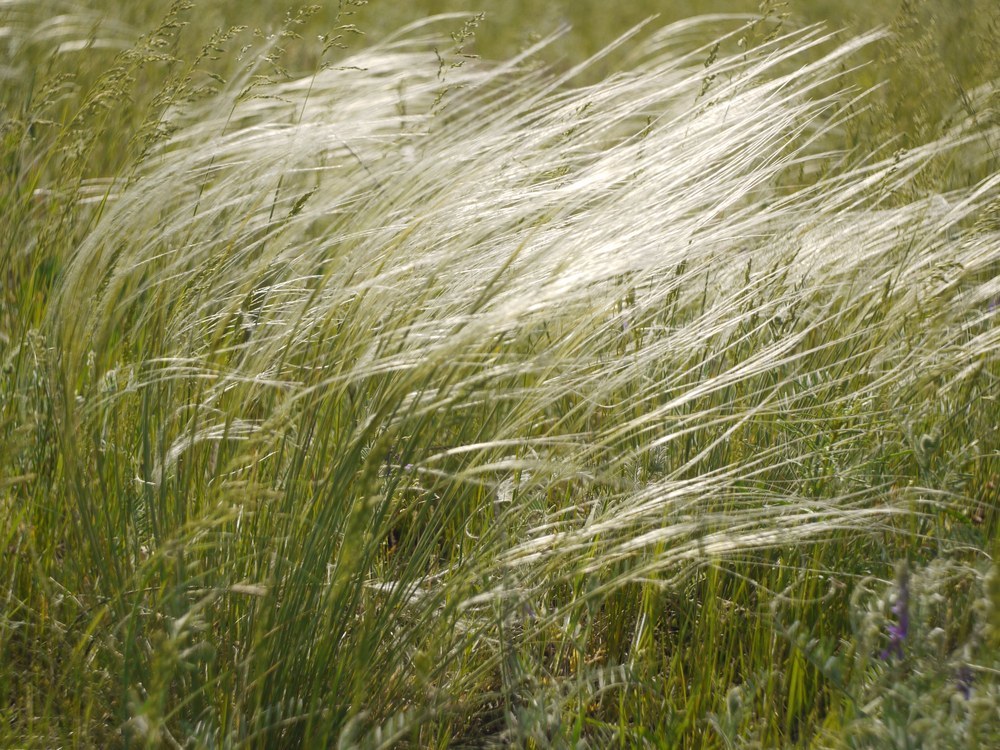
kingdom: Plantae
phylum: Tracheophyta
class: Liliopsida
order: Poales
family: Poaceae
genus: Stipa
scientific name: Stipa pennata
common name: European feather grass
